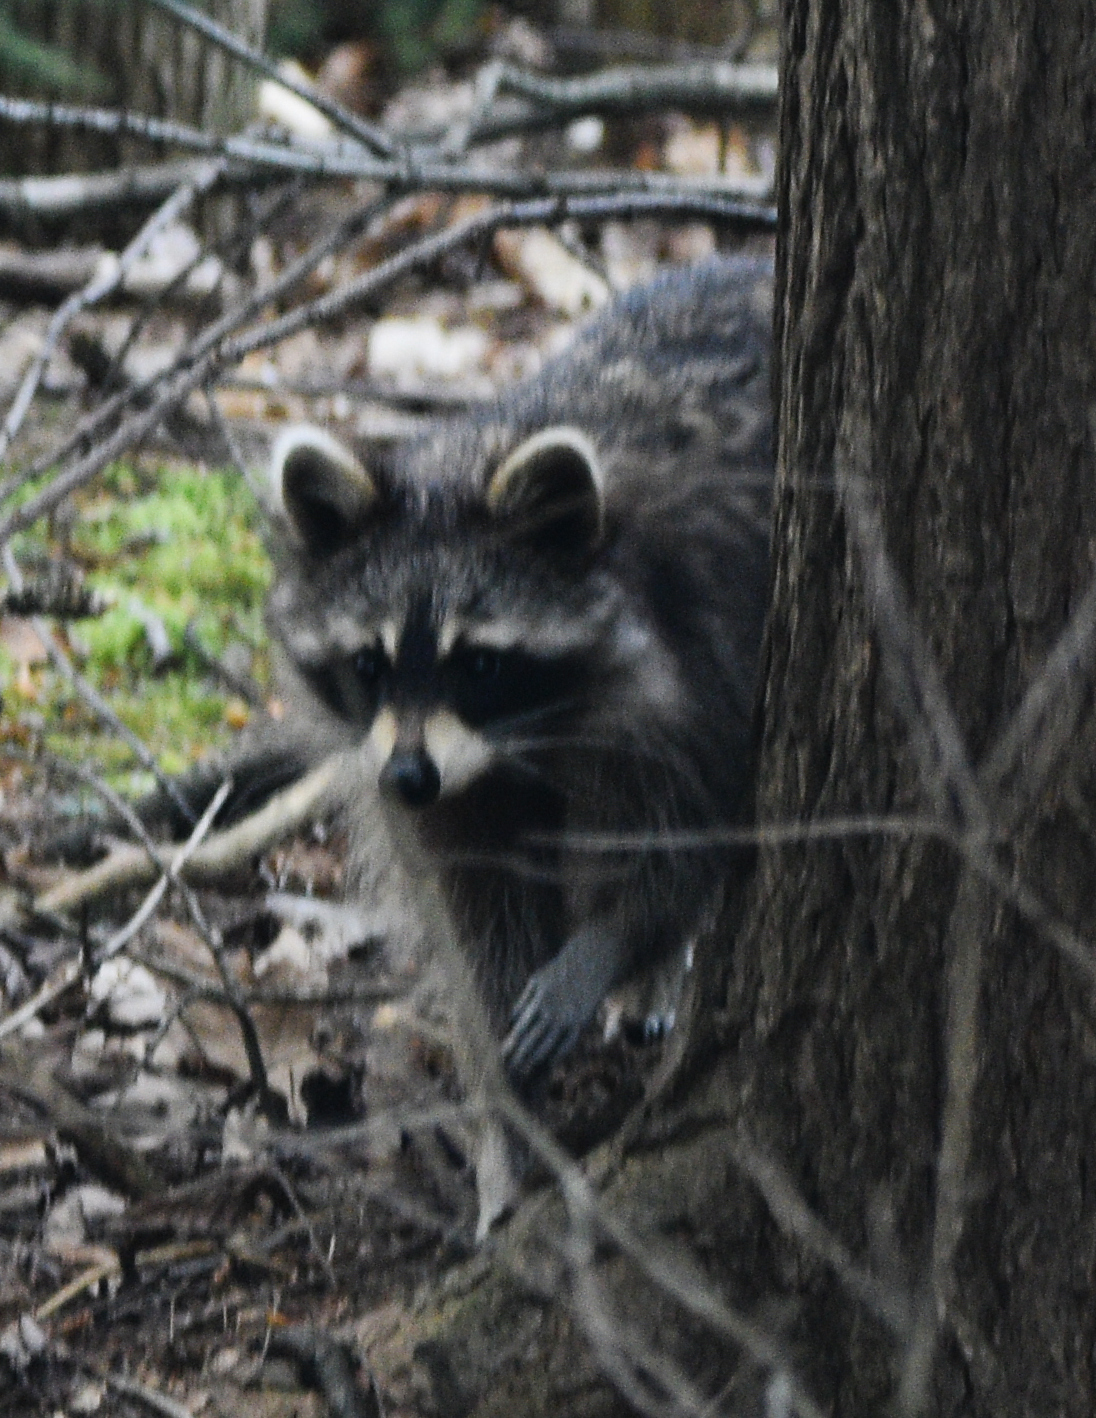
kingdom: Animalia
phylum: Chordata
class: Mammalia
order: Carnivora
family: Procyonidae
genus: Procyon
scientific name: Procyon lotor
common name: Raccoon
